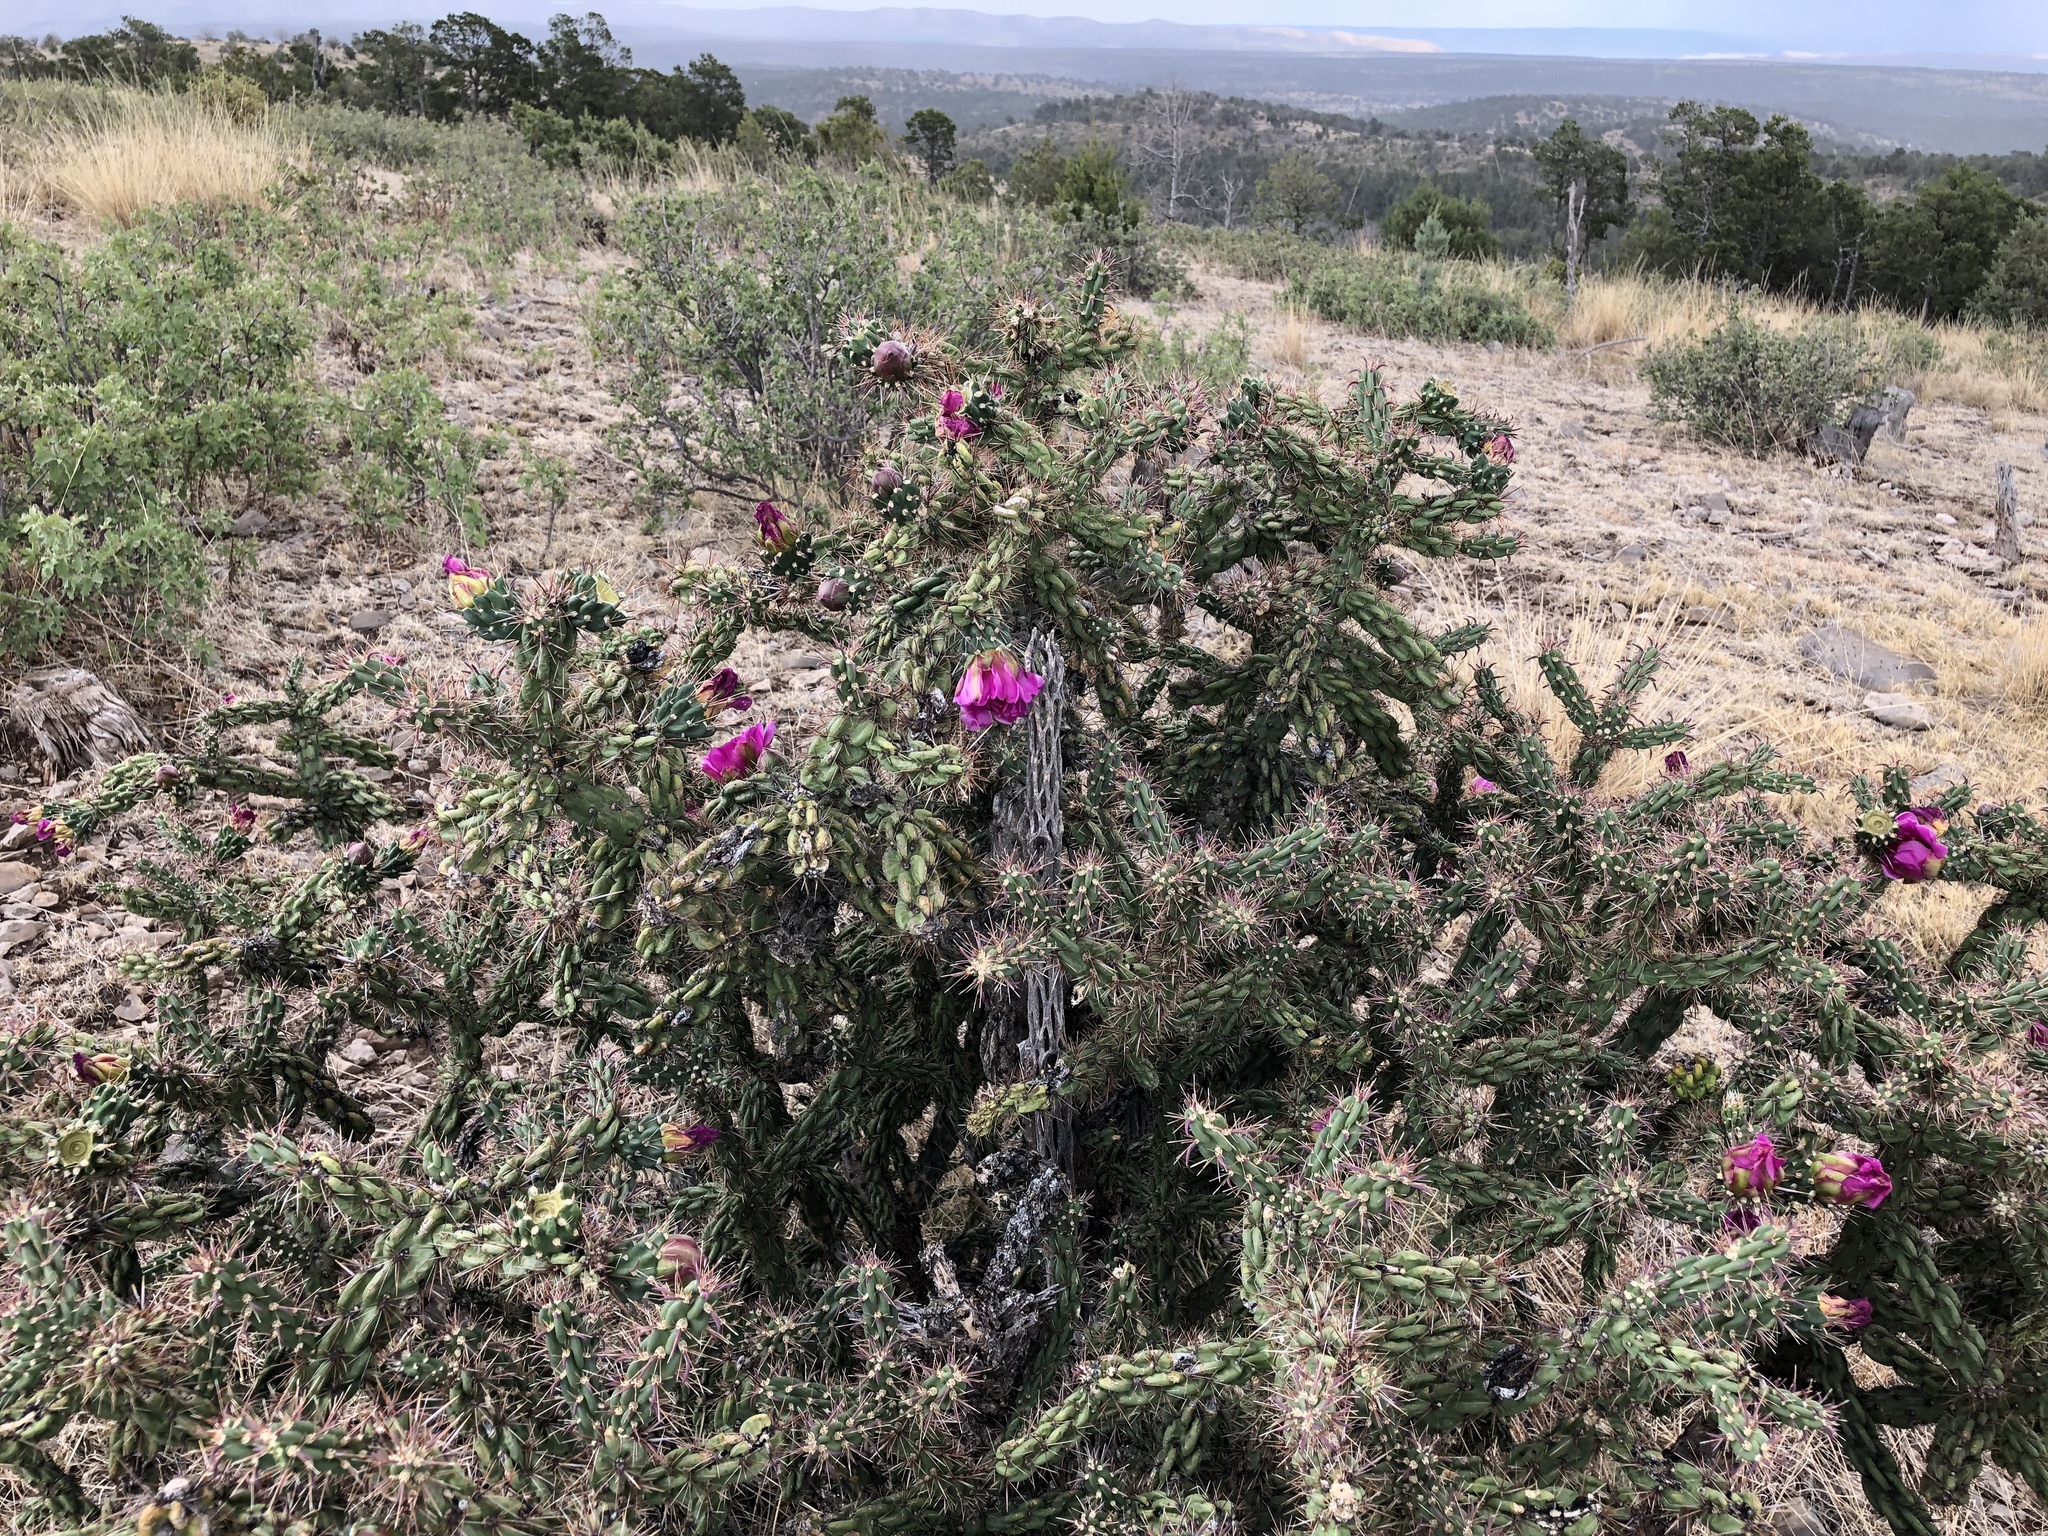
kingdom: Plantae
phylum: Tracheophyta
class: Magnoliopsida
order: Caryophyllales
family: Cactaceae
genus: Cylindropuntia
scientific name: Cylindropuntia imbricata
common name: Candelabrum cactus
